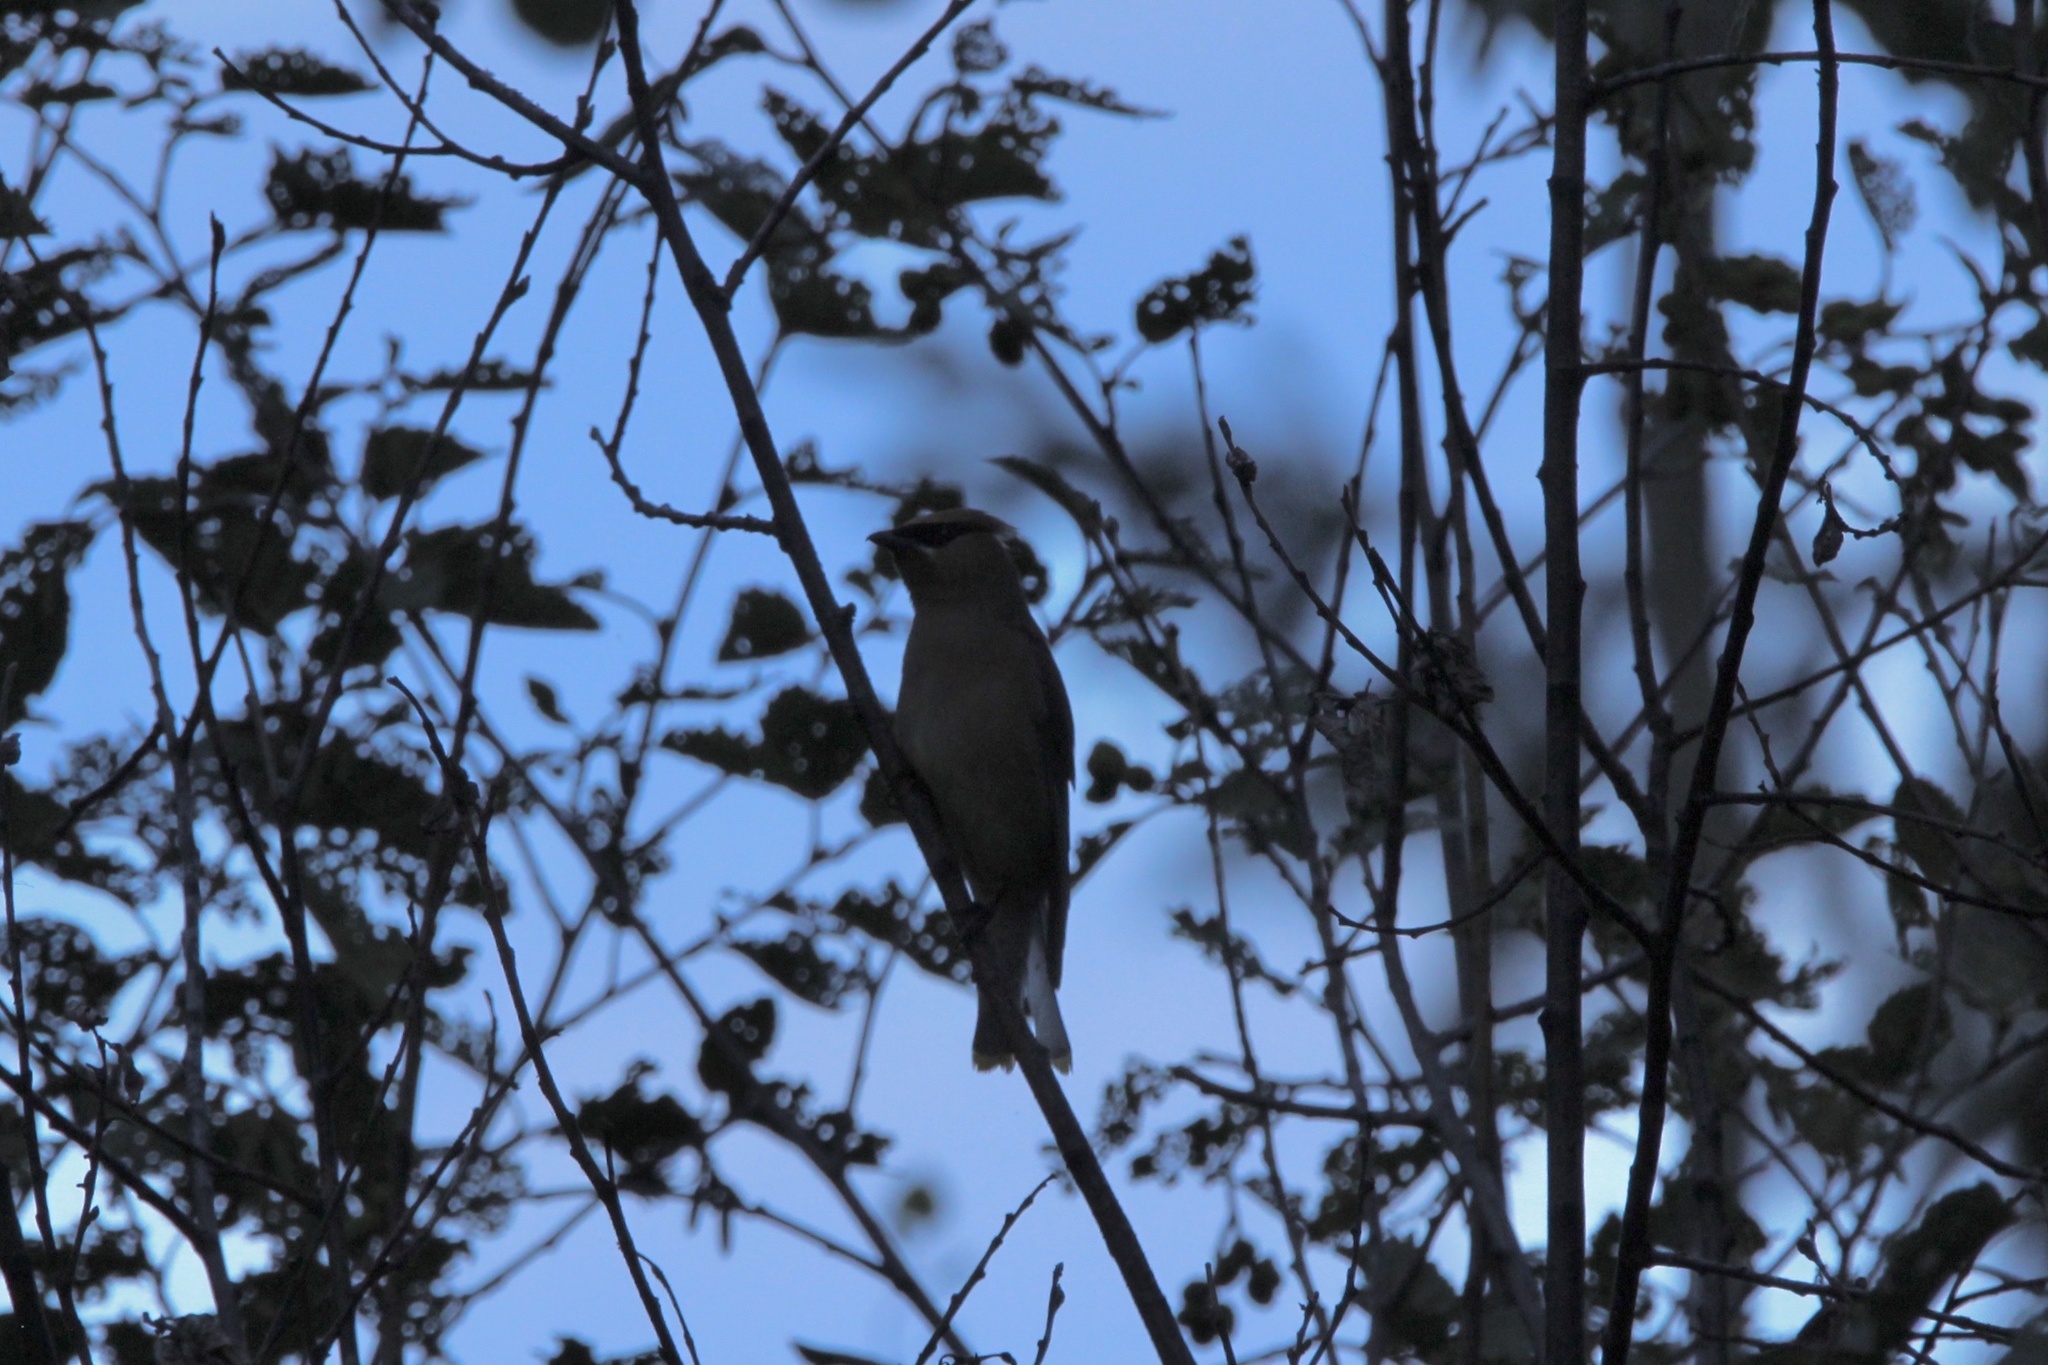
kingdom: Animalia
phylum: Chordata
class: Aves
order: Passeriformes
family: Bombycillidae
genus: Bombycilla
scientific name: Bombycilla cedrorum
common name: Cedar waxwing
